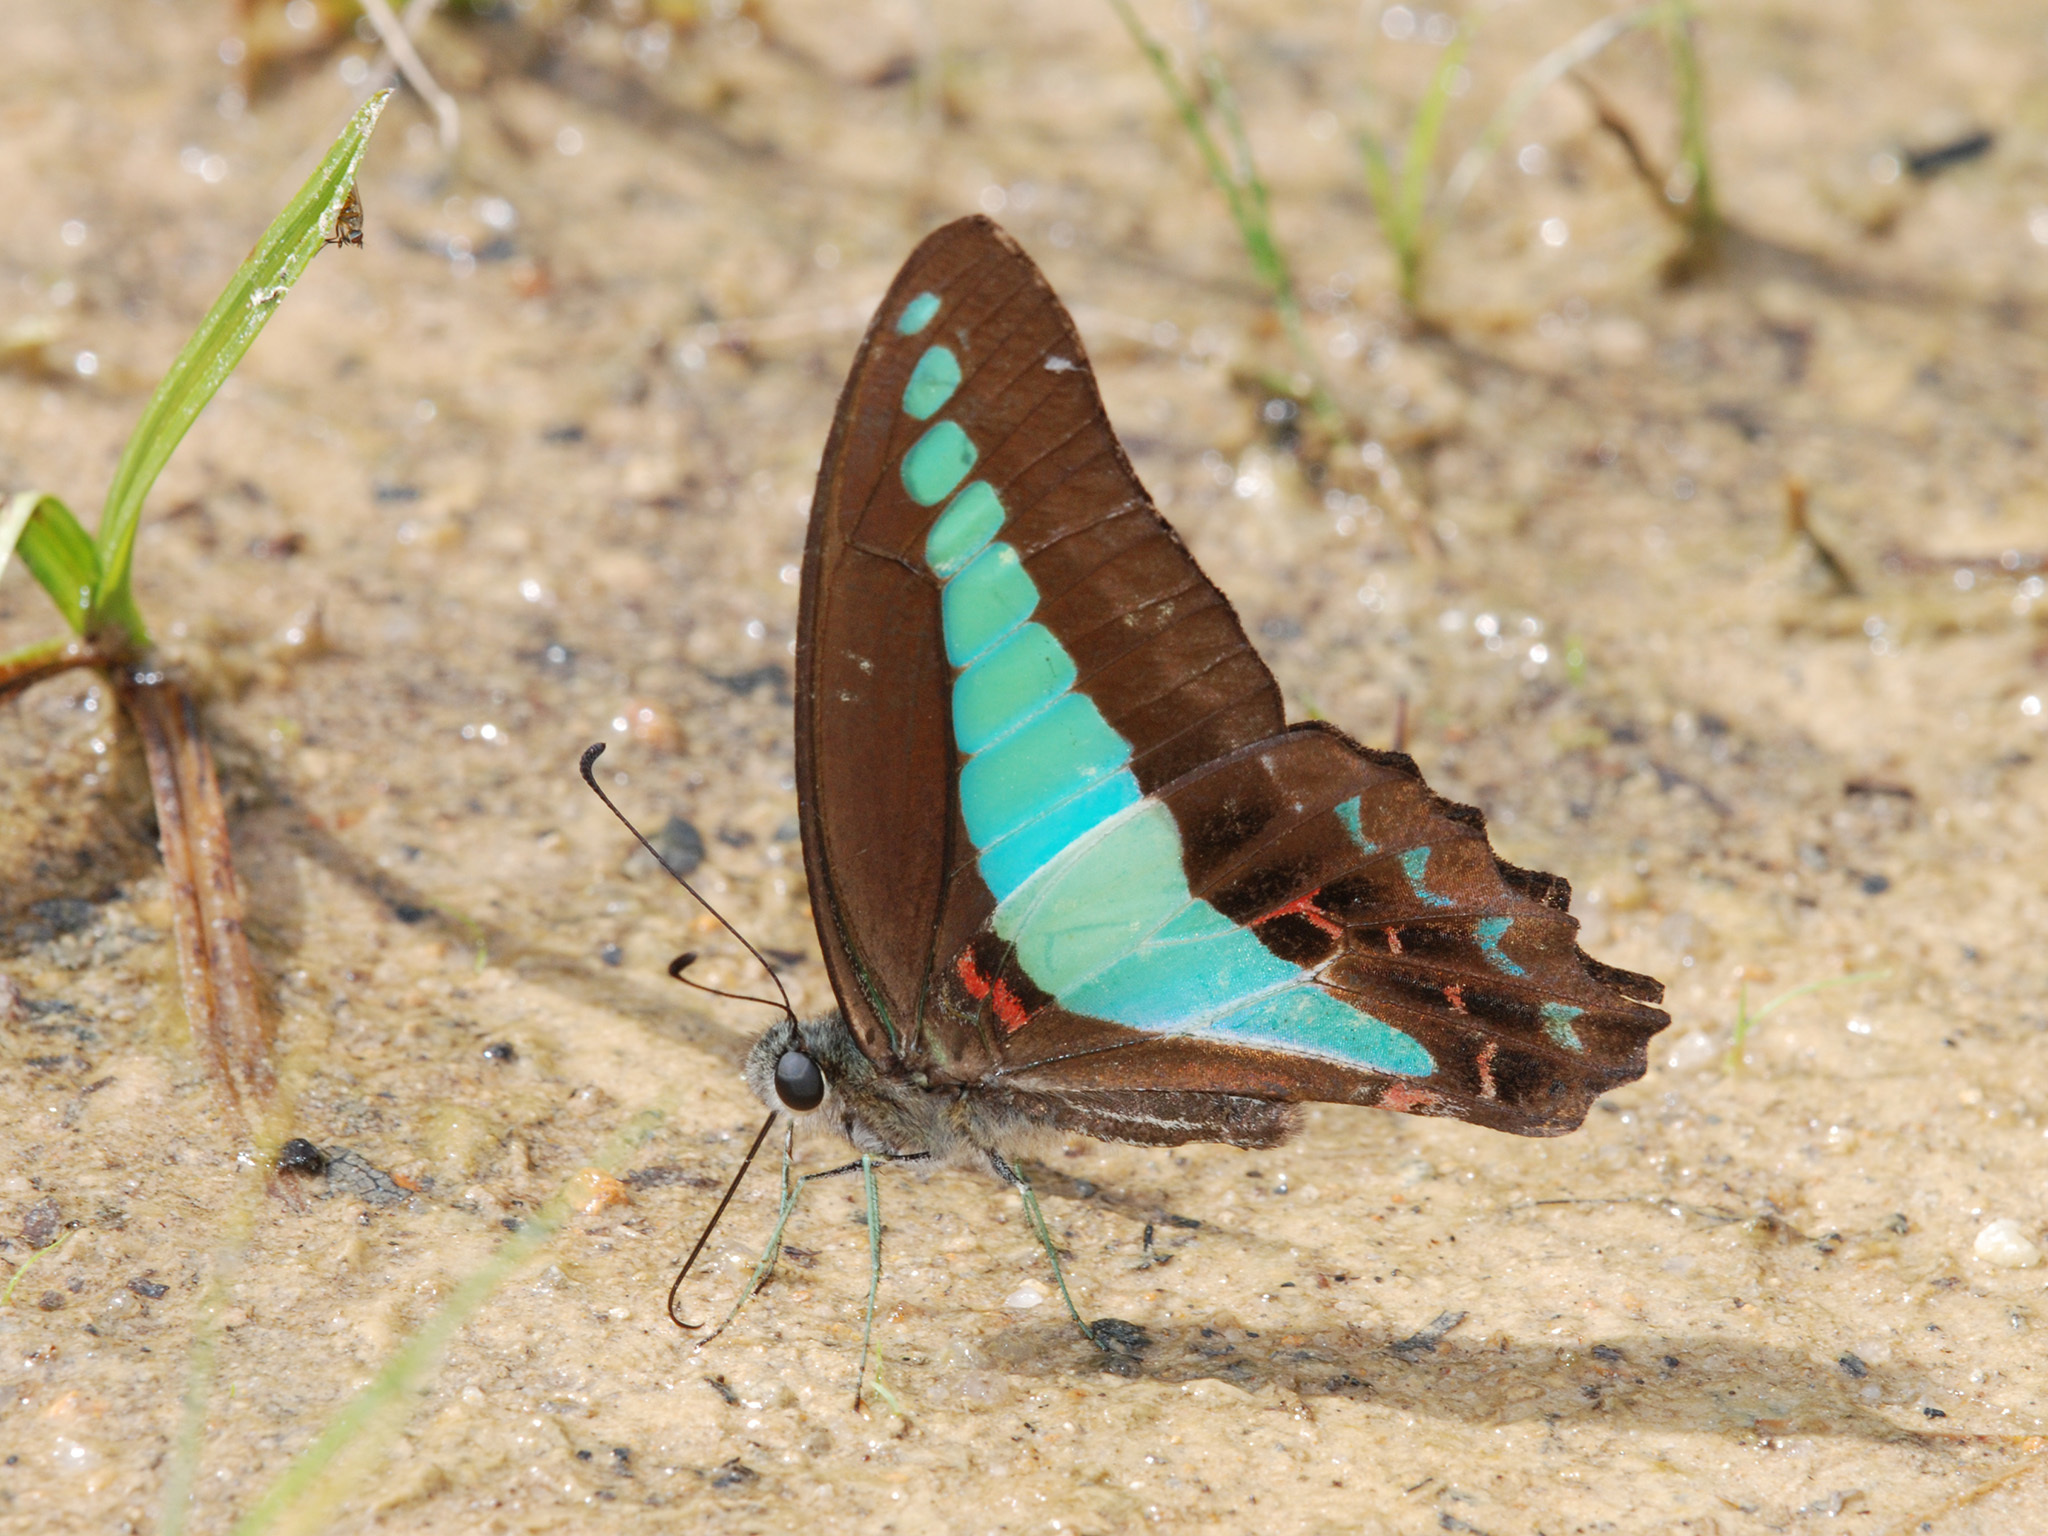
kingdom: Fungi
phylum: Ascomycota
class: Sordariomycetes
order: Microascales
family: Microascaceae
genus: Graphium
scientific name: Graphium sarpedon
